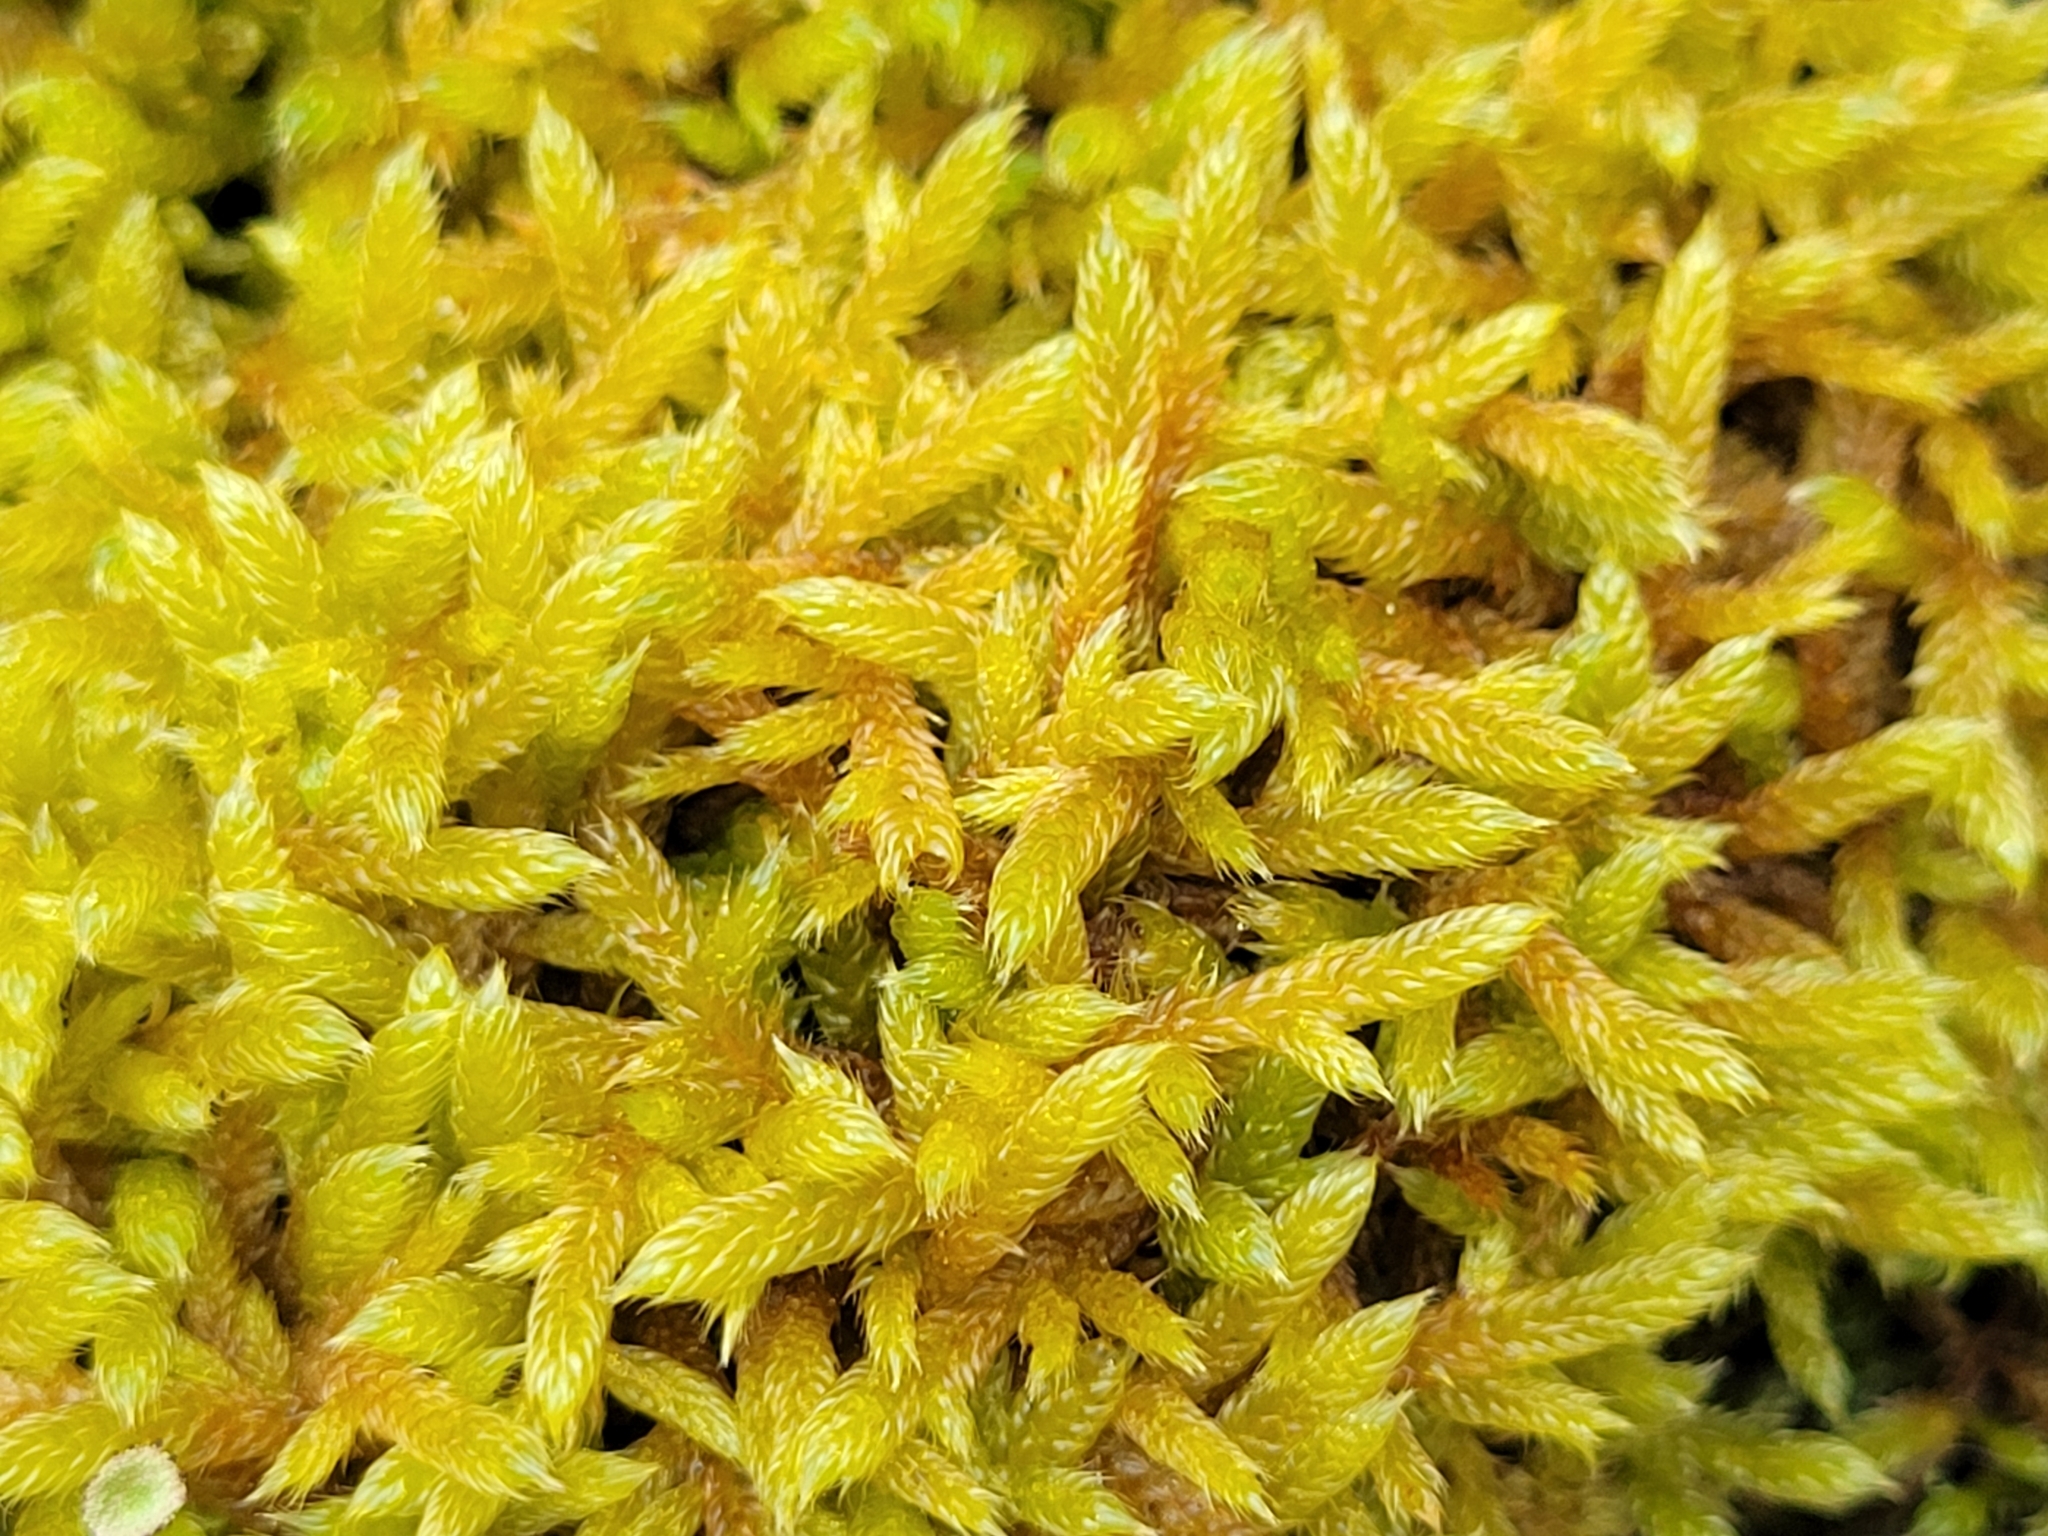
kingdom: Plantae
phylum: Bryophyta
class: Bryopsida
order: Hypnales
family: Hypnaceae
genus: Hypnum
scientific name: Hypnum cupressiforme
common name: Cypress-leaved plait-moss
